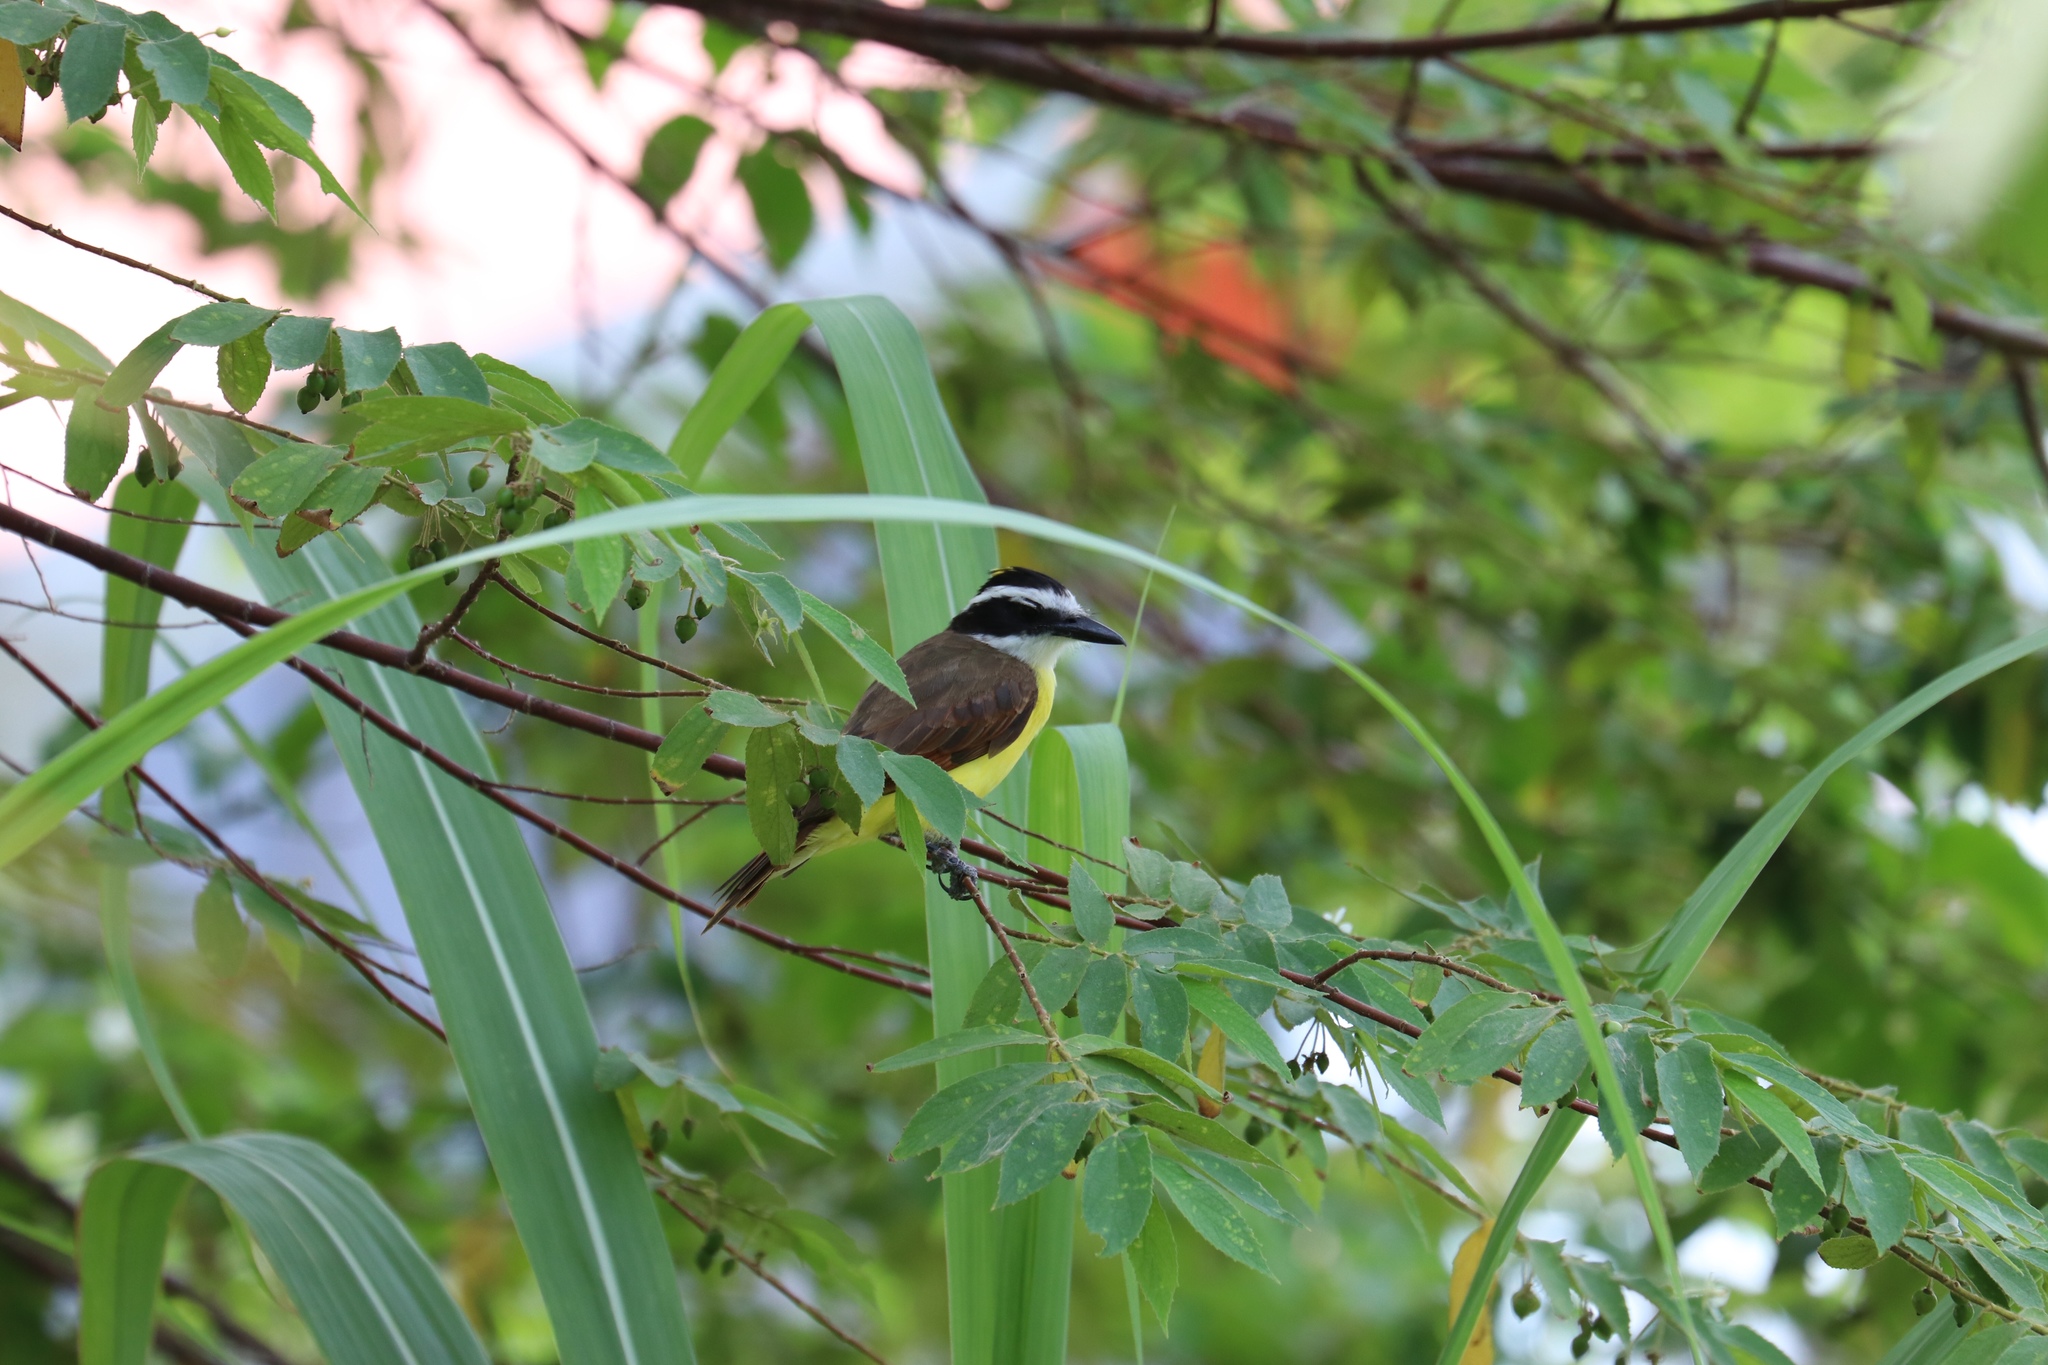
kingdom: Animalia
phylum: Chordata
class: Aves
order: Passeriformes
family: Tyrannidae
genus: Pitangus
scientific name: Pitangus sulphuratus
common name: Great kiskadee
